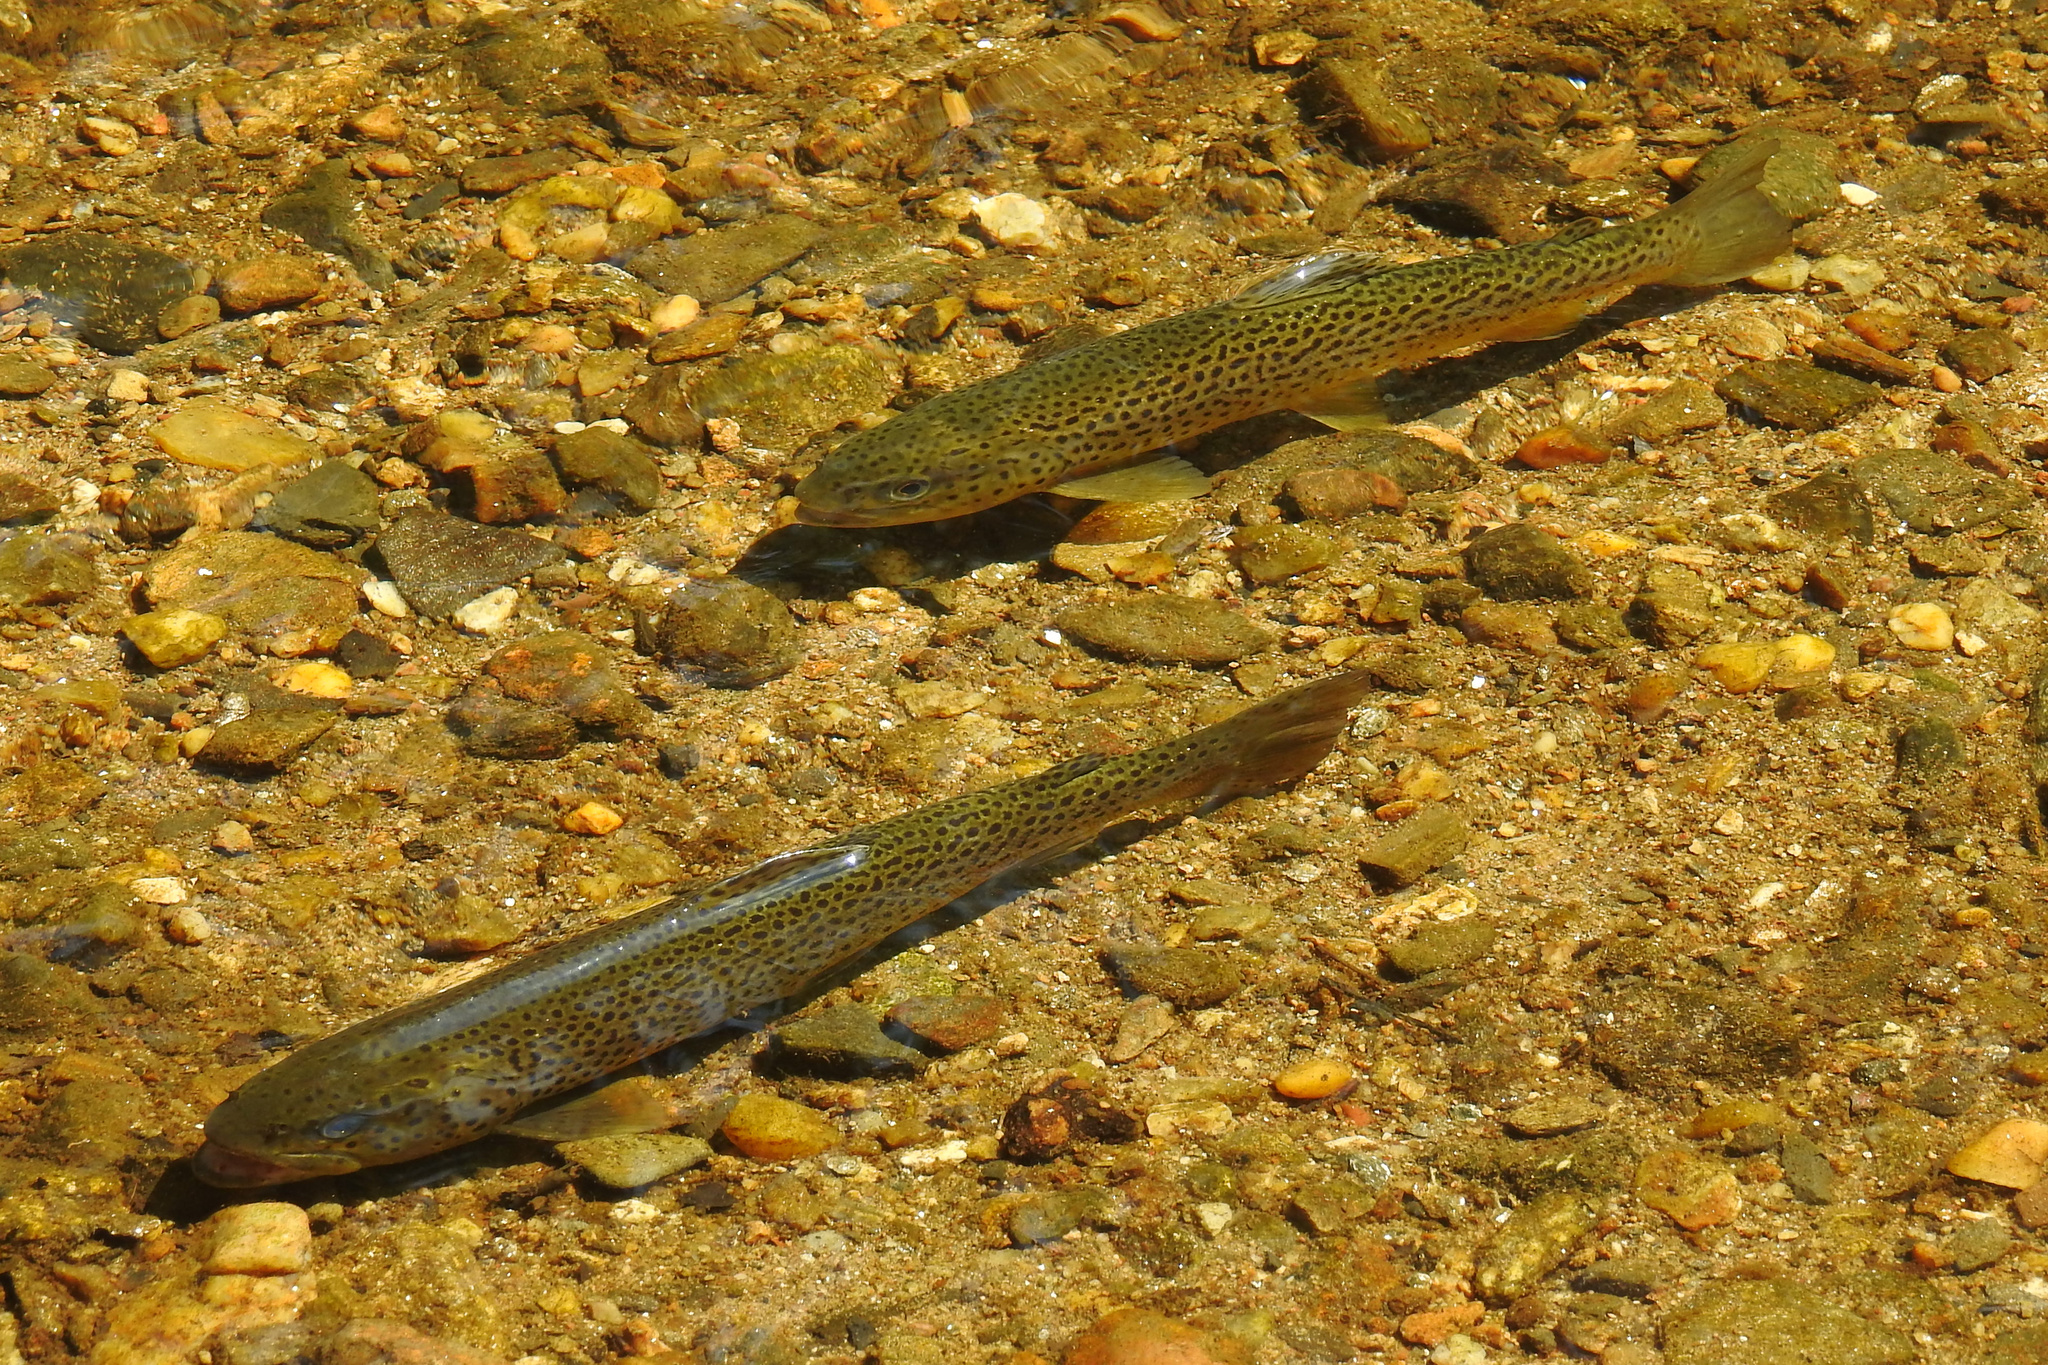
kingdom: Animalia
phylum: Chordata
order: Salmoniformes
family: Salmonidae
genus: Salmo
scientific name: Salmo trutta
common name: Brown trout
